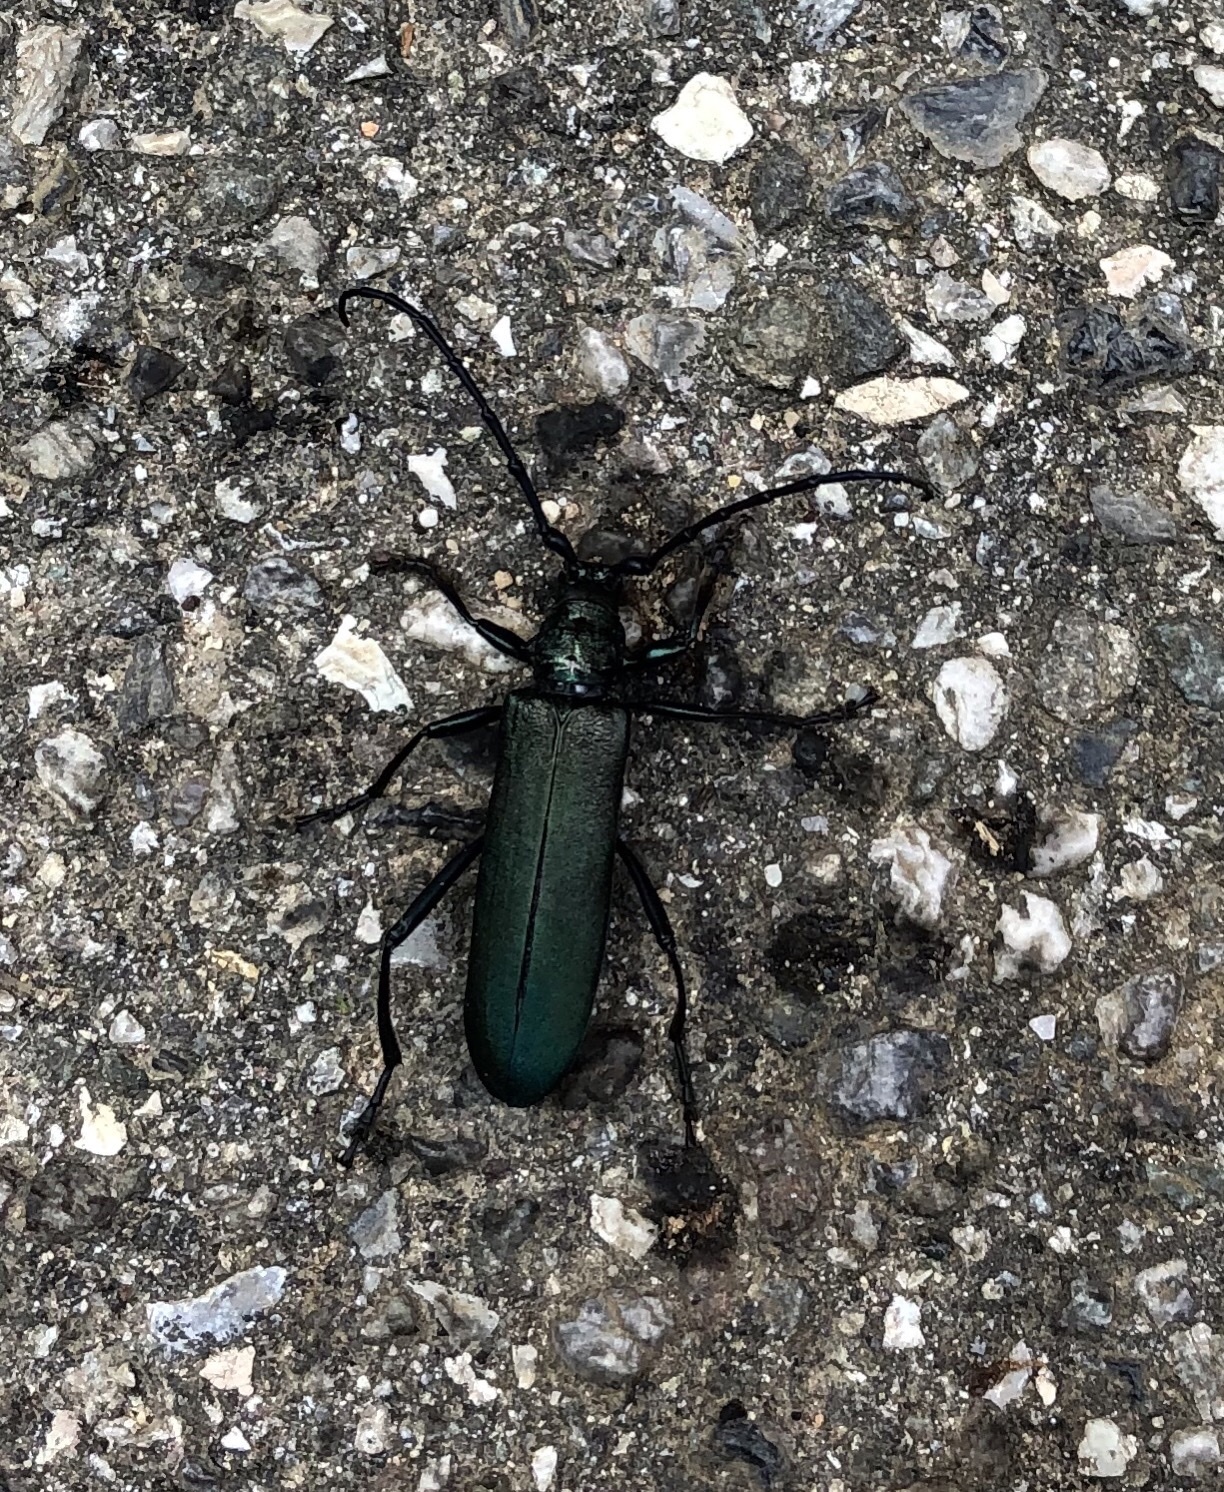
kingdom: Animalia
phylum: Arthropoda
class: Insecta
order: Coleoptera
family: Cerambycidae
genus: Aromia
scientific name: Aromia moschata
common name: Musk beetle
